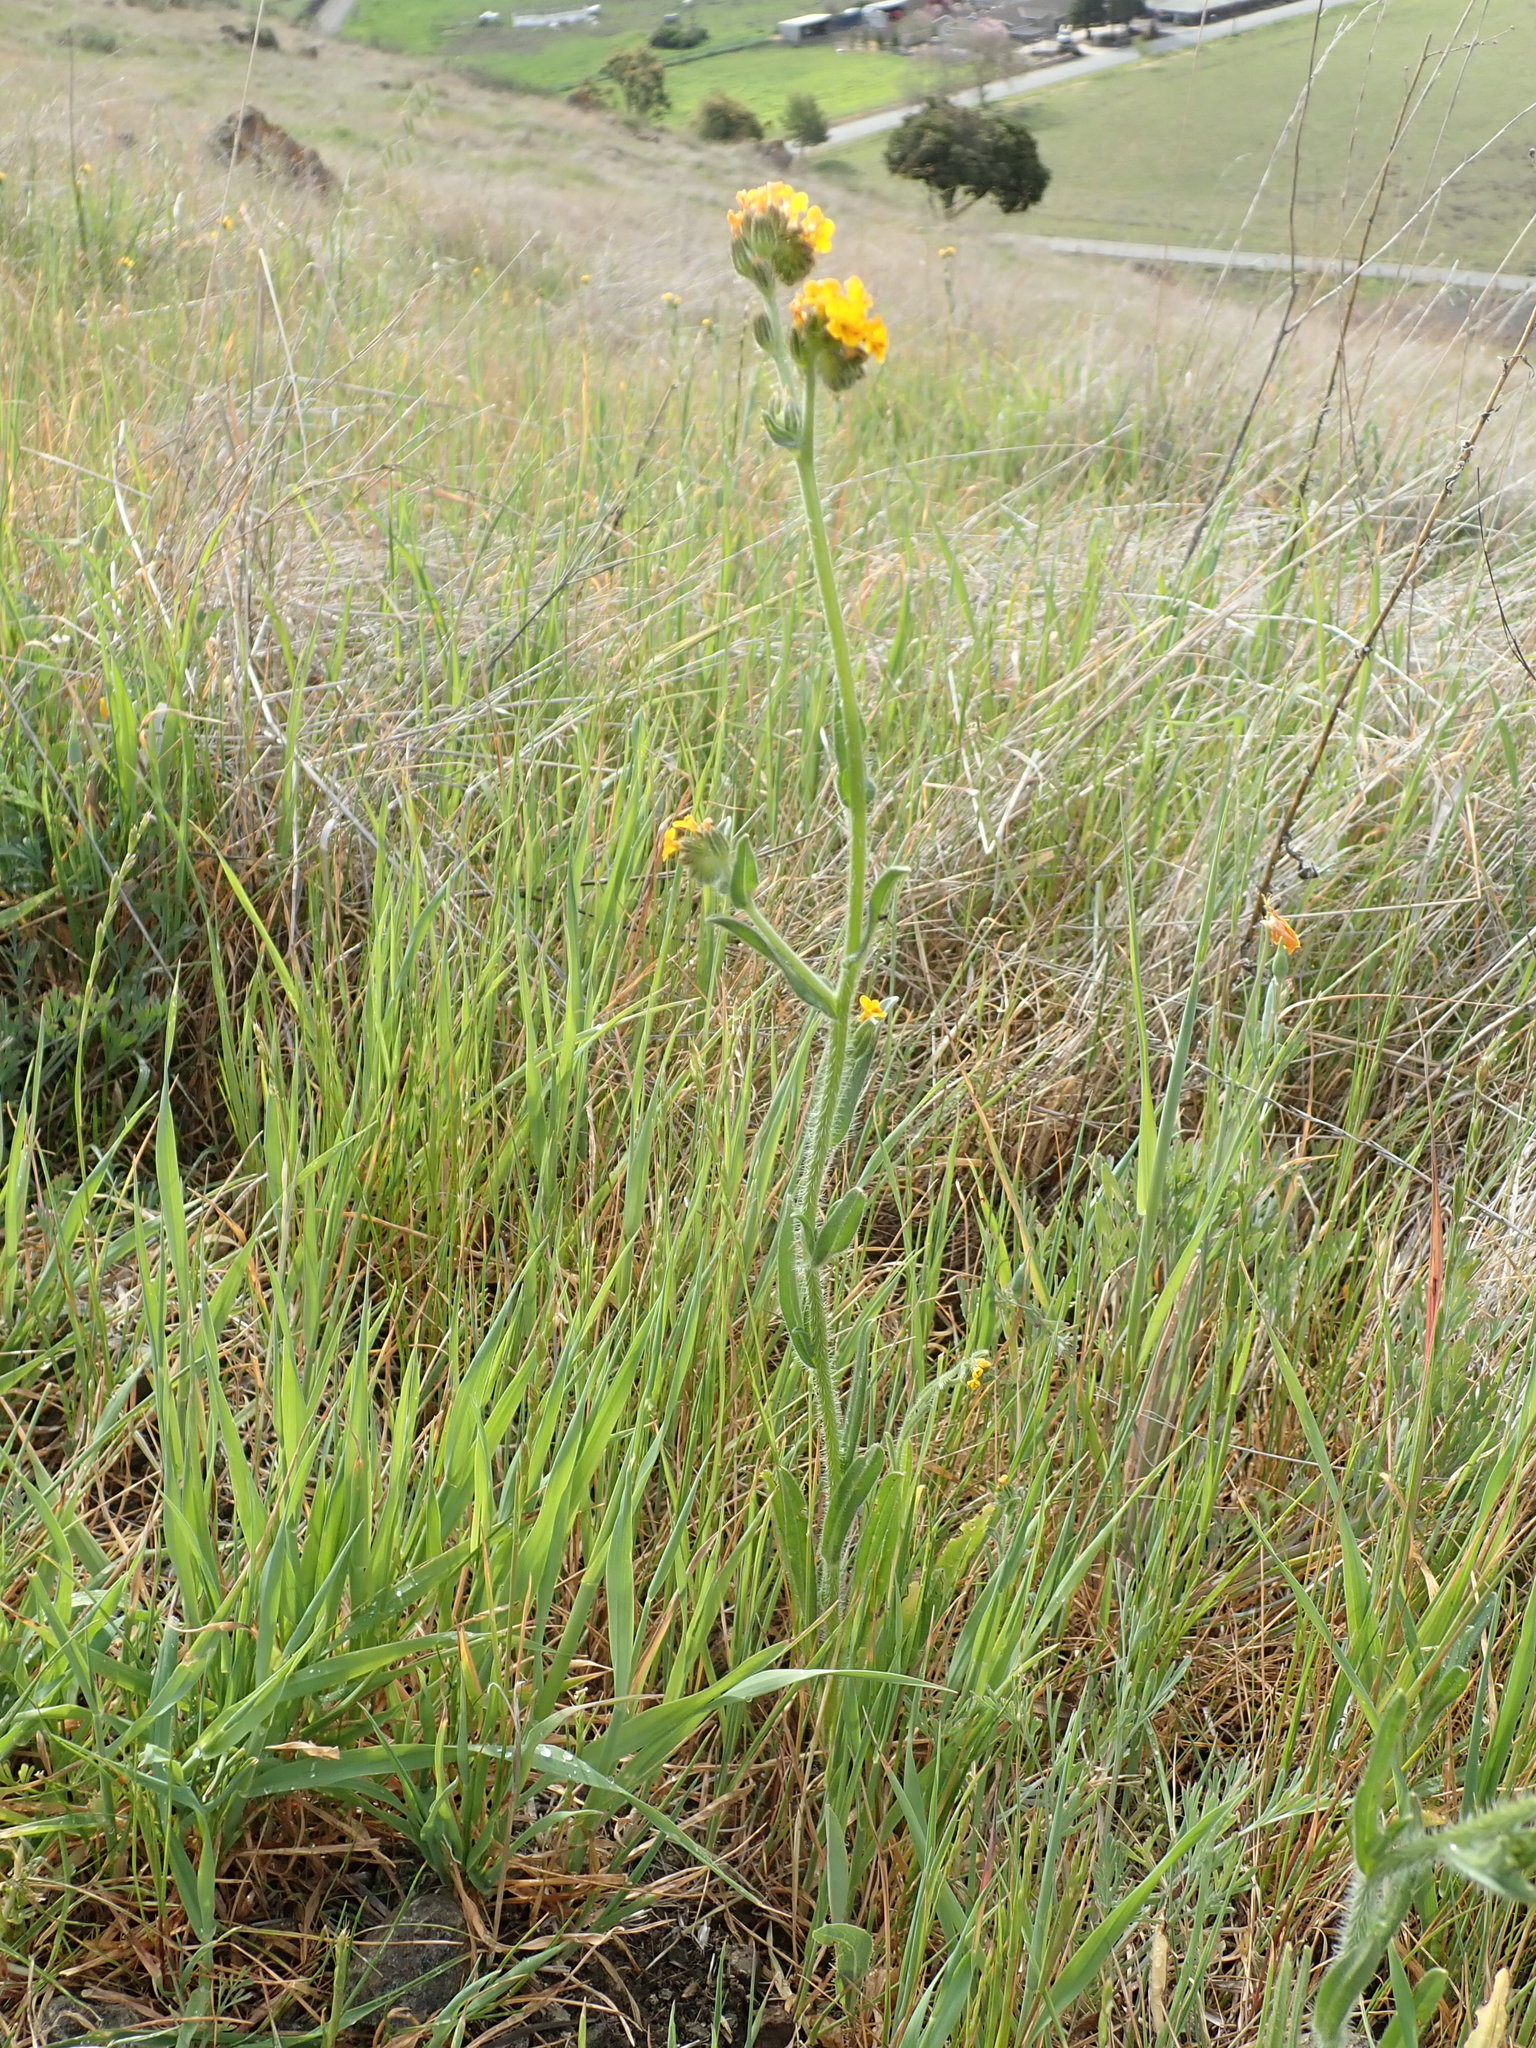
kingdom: Plantae
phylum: Tracheophyta
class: Magnoliopsida
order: Boraginales
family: Boraginaceae
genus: Amsinckia
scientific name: Amsinckia menziesii
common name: Menzies' fiddleneck
